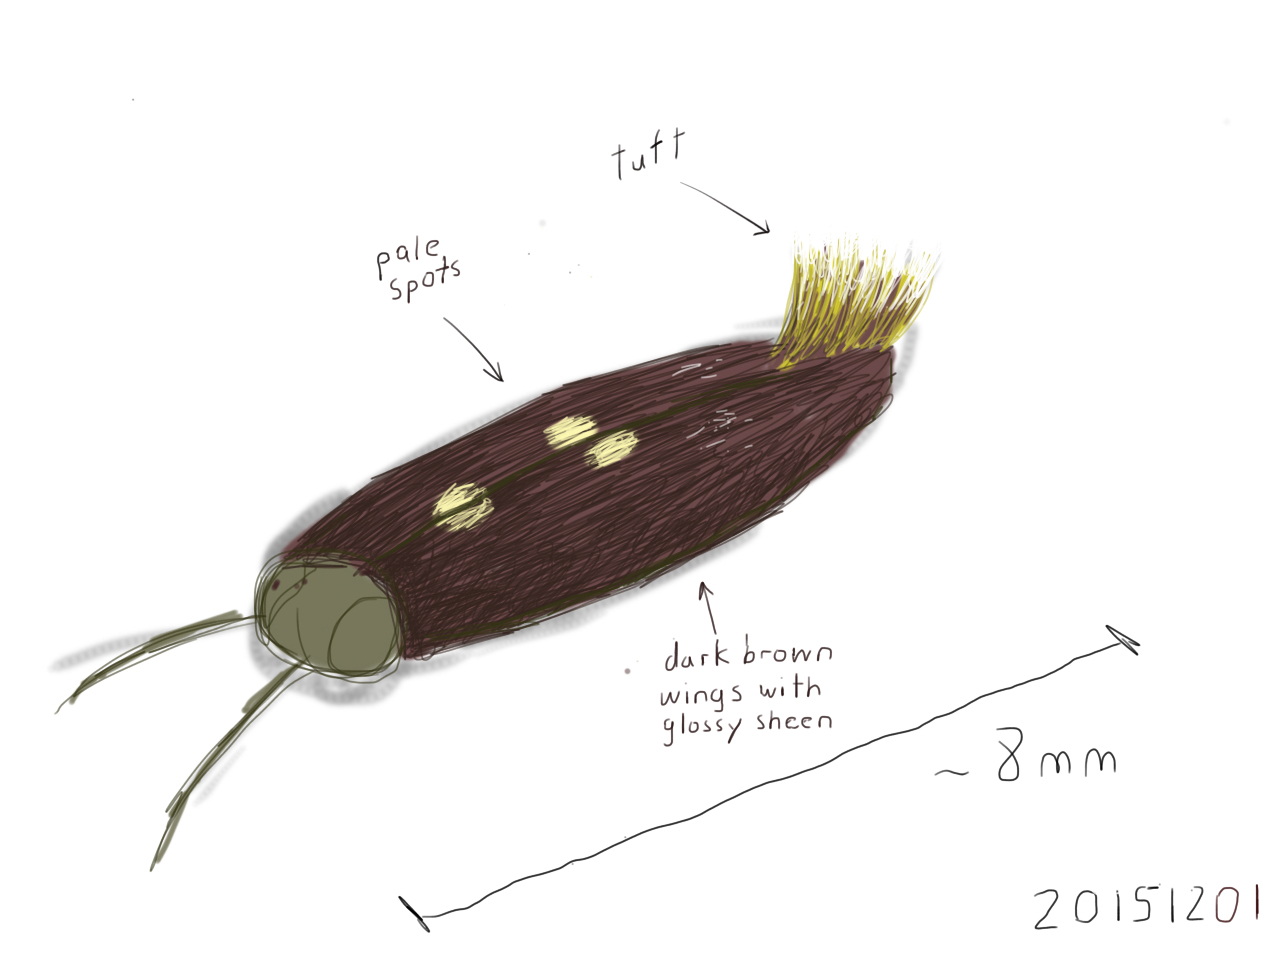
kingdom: Animalia
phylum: Arthropoda
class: Insecta
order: Lepidoptera
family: Tineidae
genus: Opogona
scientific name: Opogona omoscopa
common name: Moth
